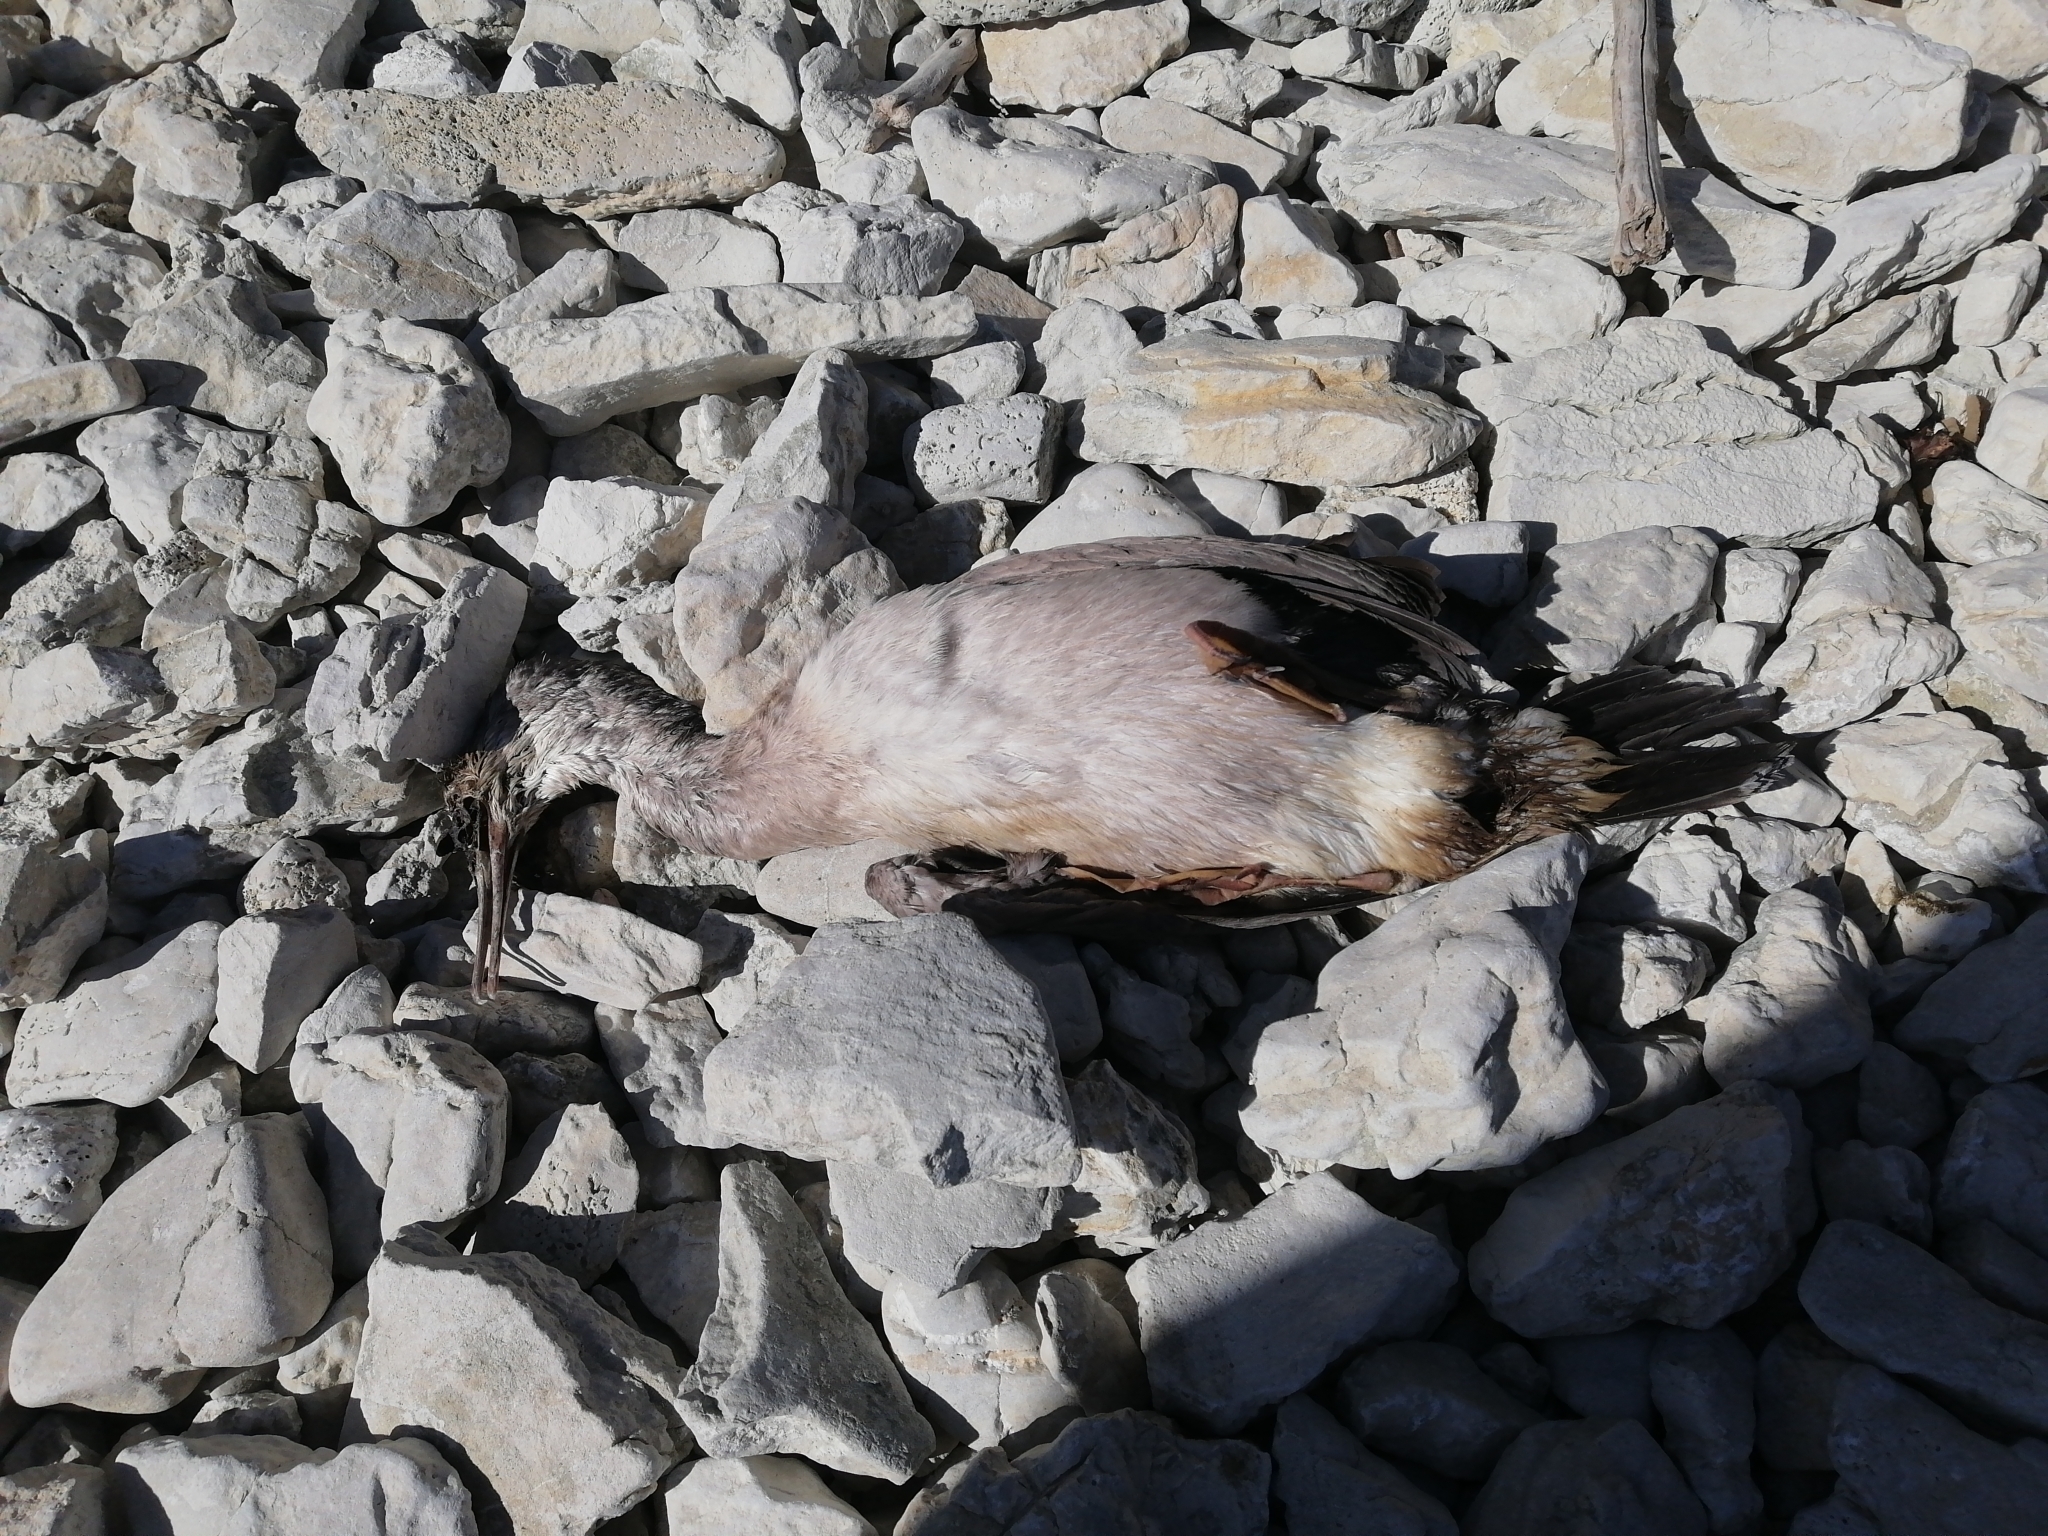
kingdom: Animalia
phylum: Chordata
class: Aves
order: Suliformes
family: Phalacrocoracidae
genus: Phalacrocorax
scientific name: Phalacrocorax punctatus
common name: Spotted shag
